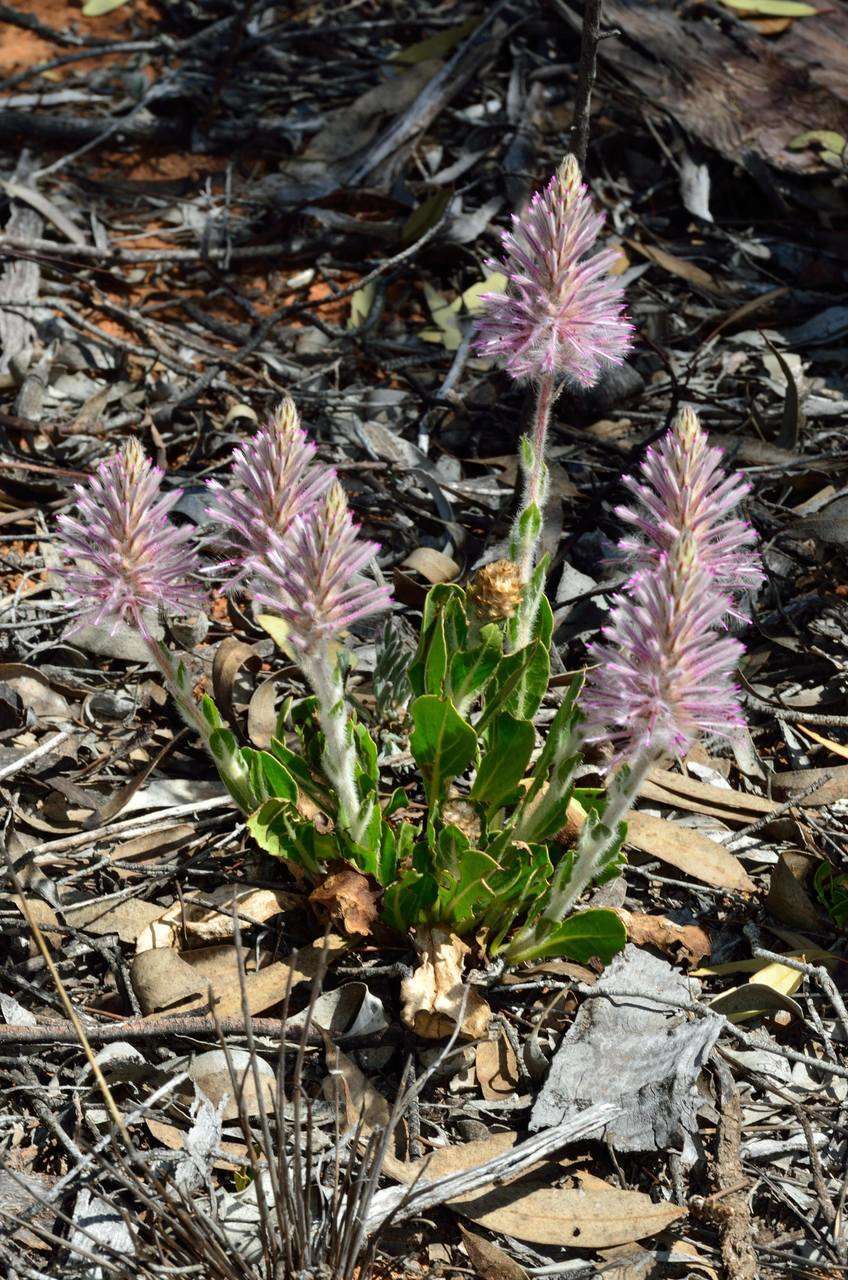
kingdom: Plantae
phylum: Tracheophyta
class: Magnoliopsida
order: Caryophyllales
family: Amaranthaceae
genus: Ptilotus
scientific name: Ptilotus exaltatus
